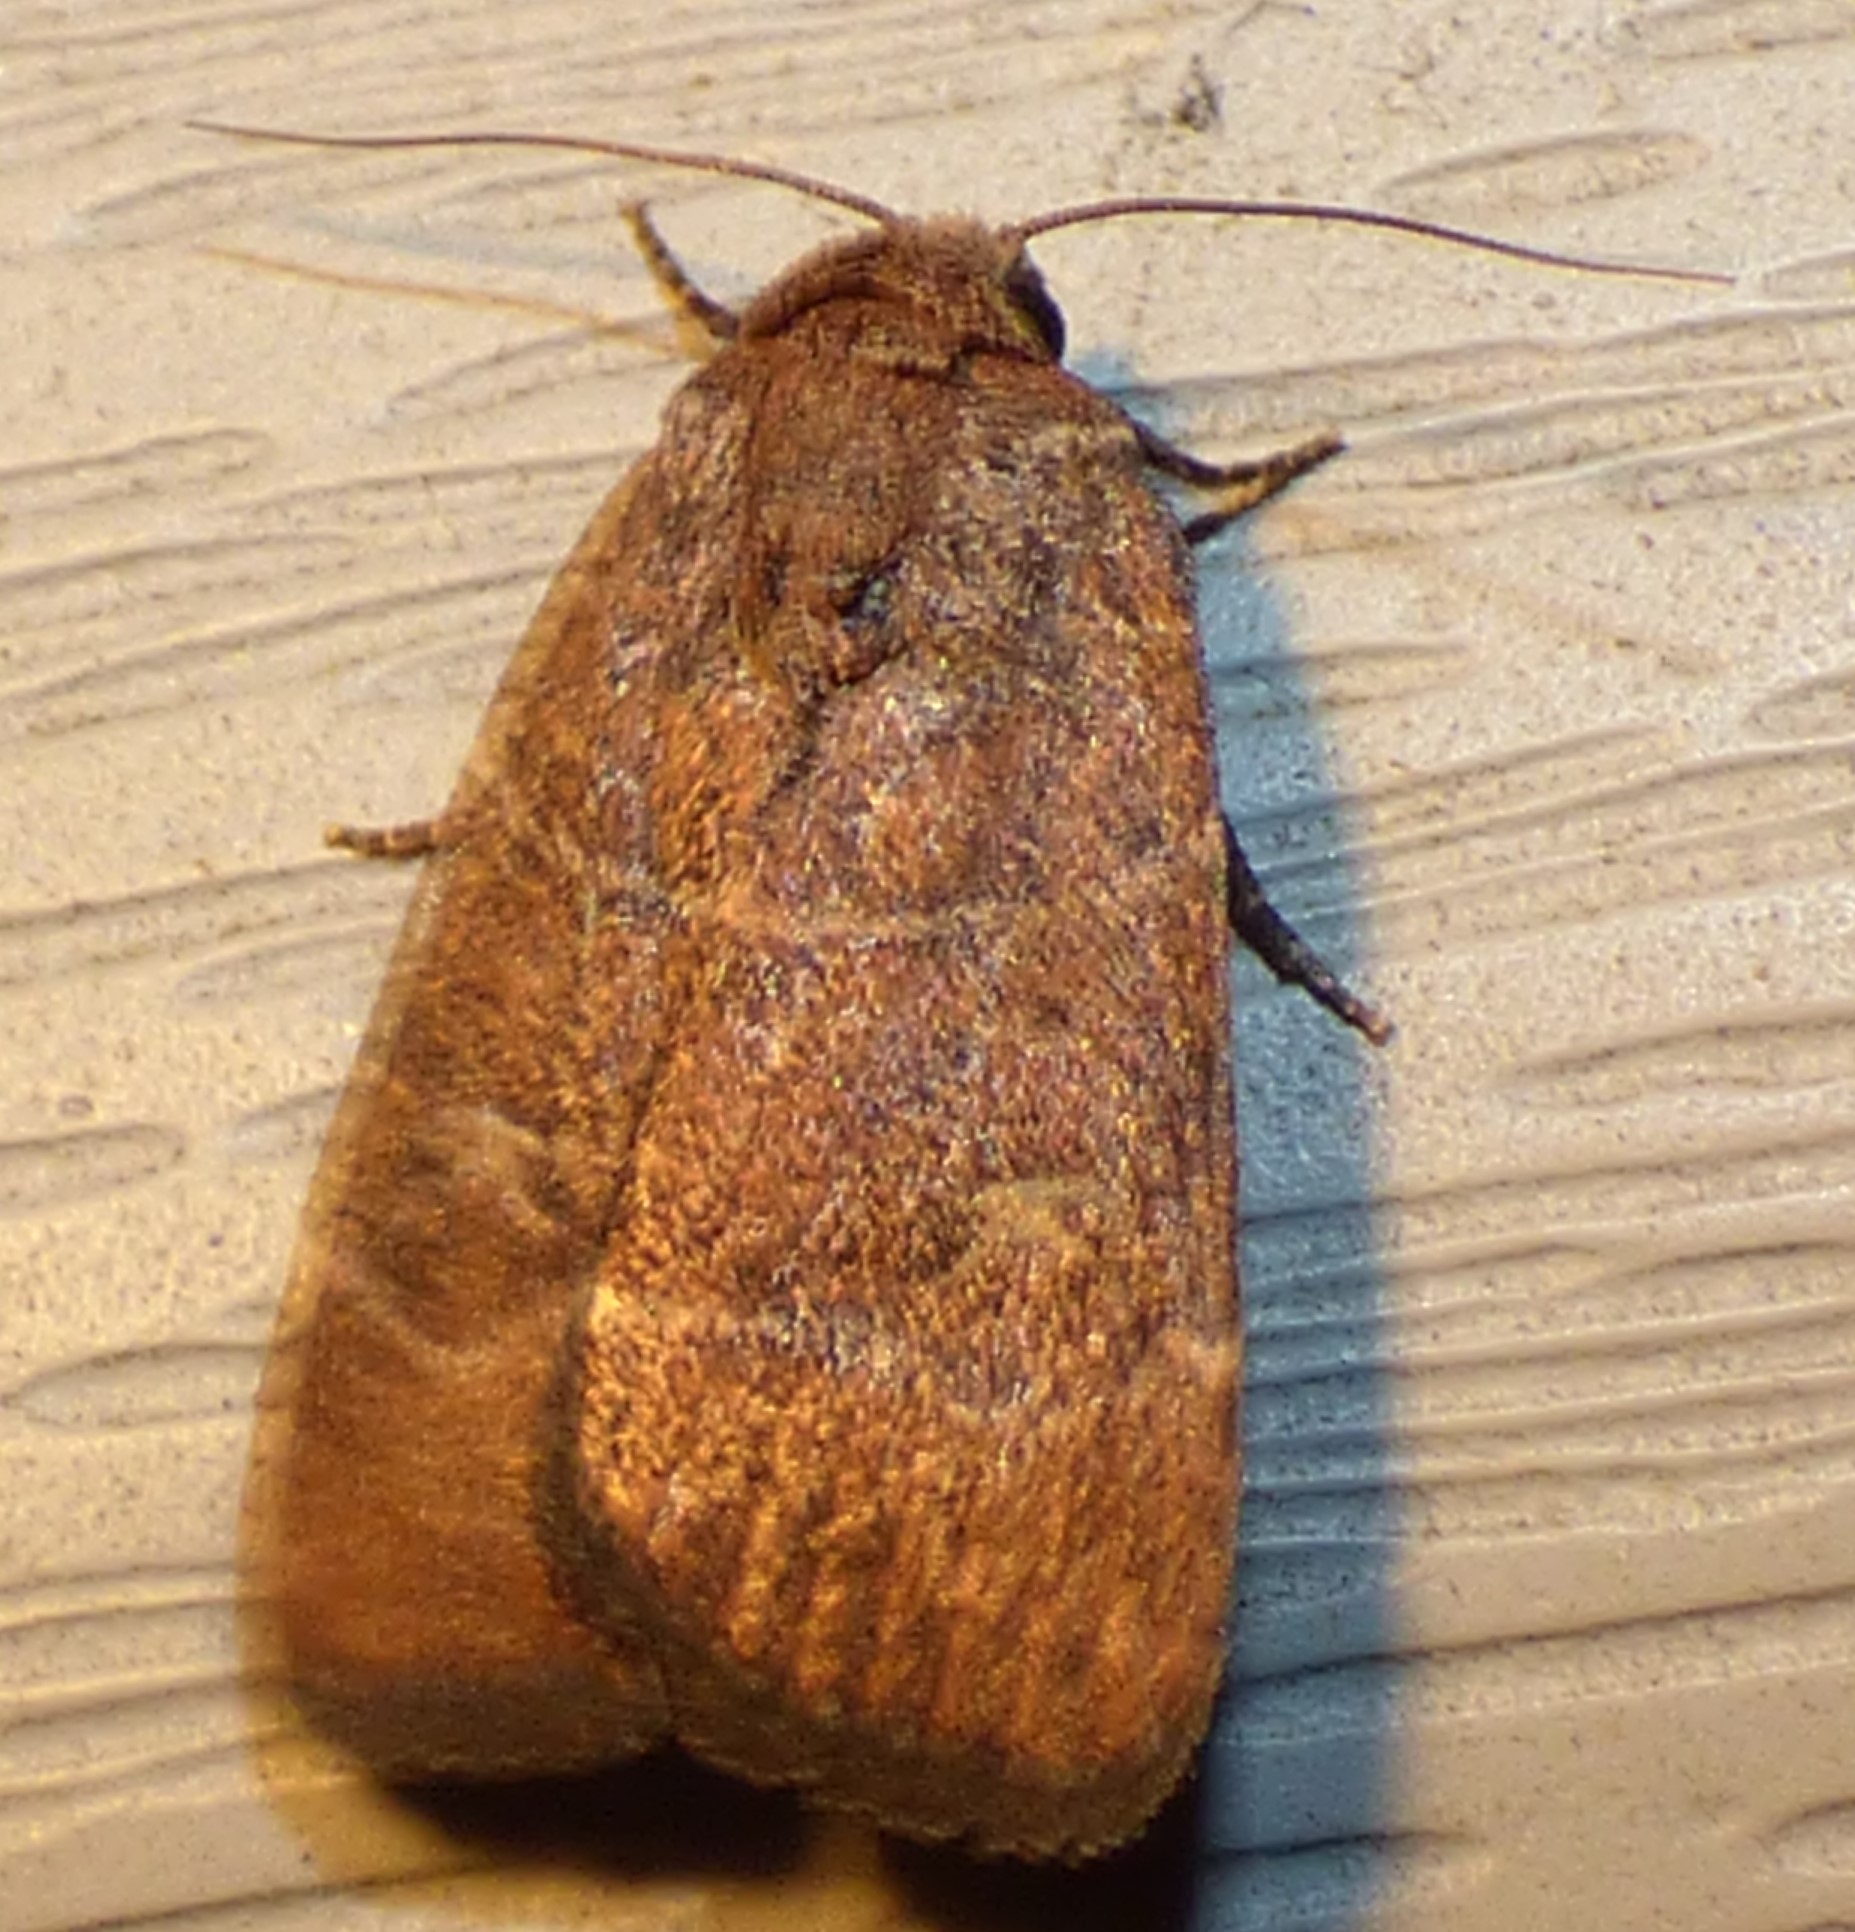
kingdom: Animalia
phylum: Arthropoda
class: Insecta
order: Lepidoptera
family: Noctuidae
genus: Elaphria
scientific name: Elaphria grata
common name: Grateful midget moth
